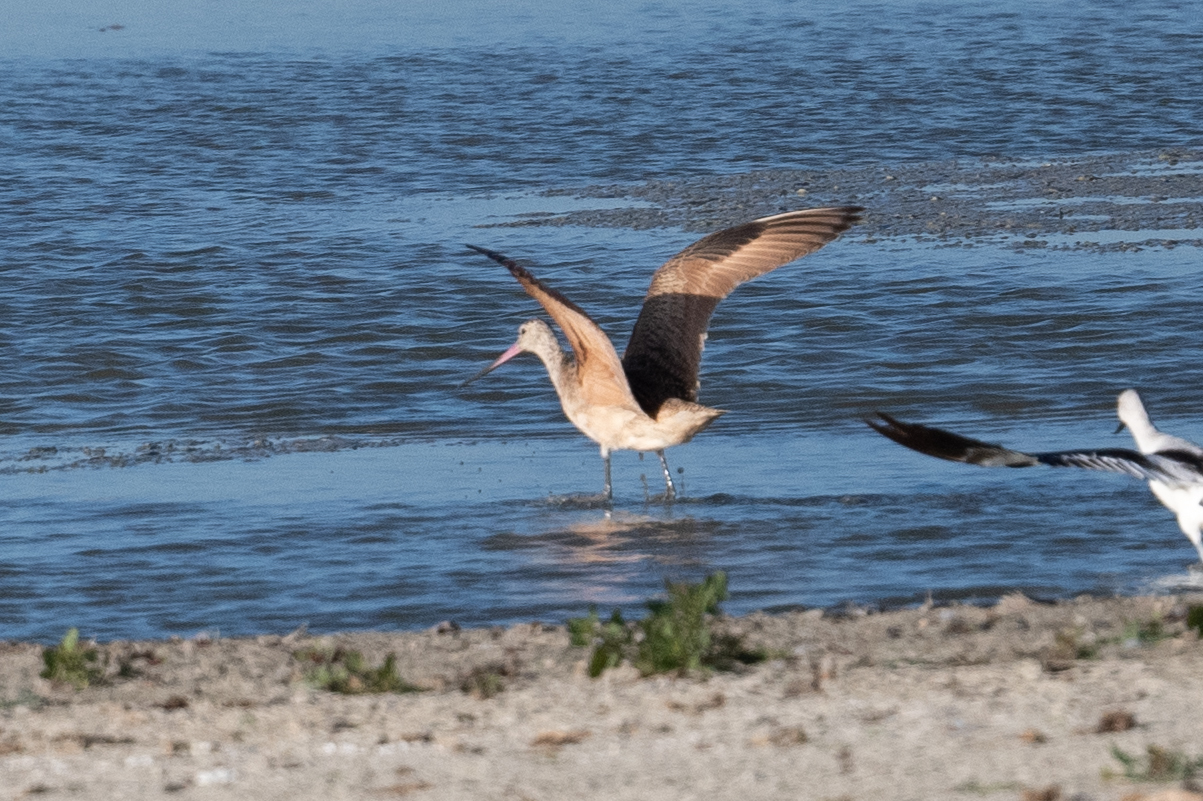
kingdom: Animalia
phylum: Chordata
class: Aves
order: Charadriiformes
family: Scolopacidae
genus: Limosa
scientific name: Limosa fedoa
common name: Marbled godwit
